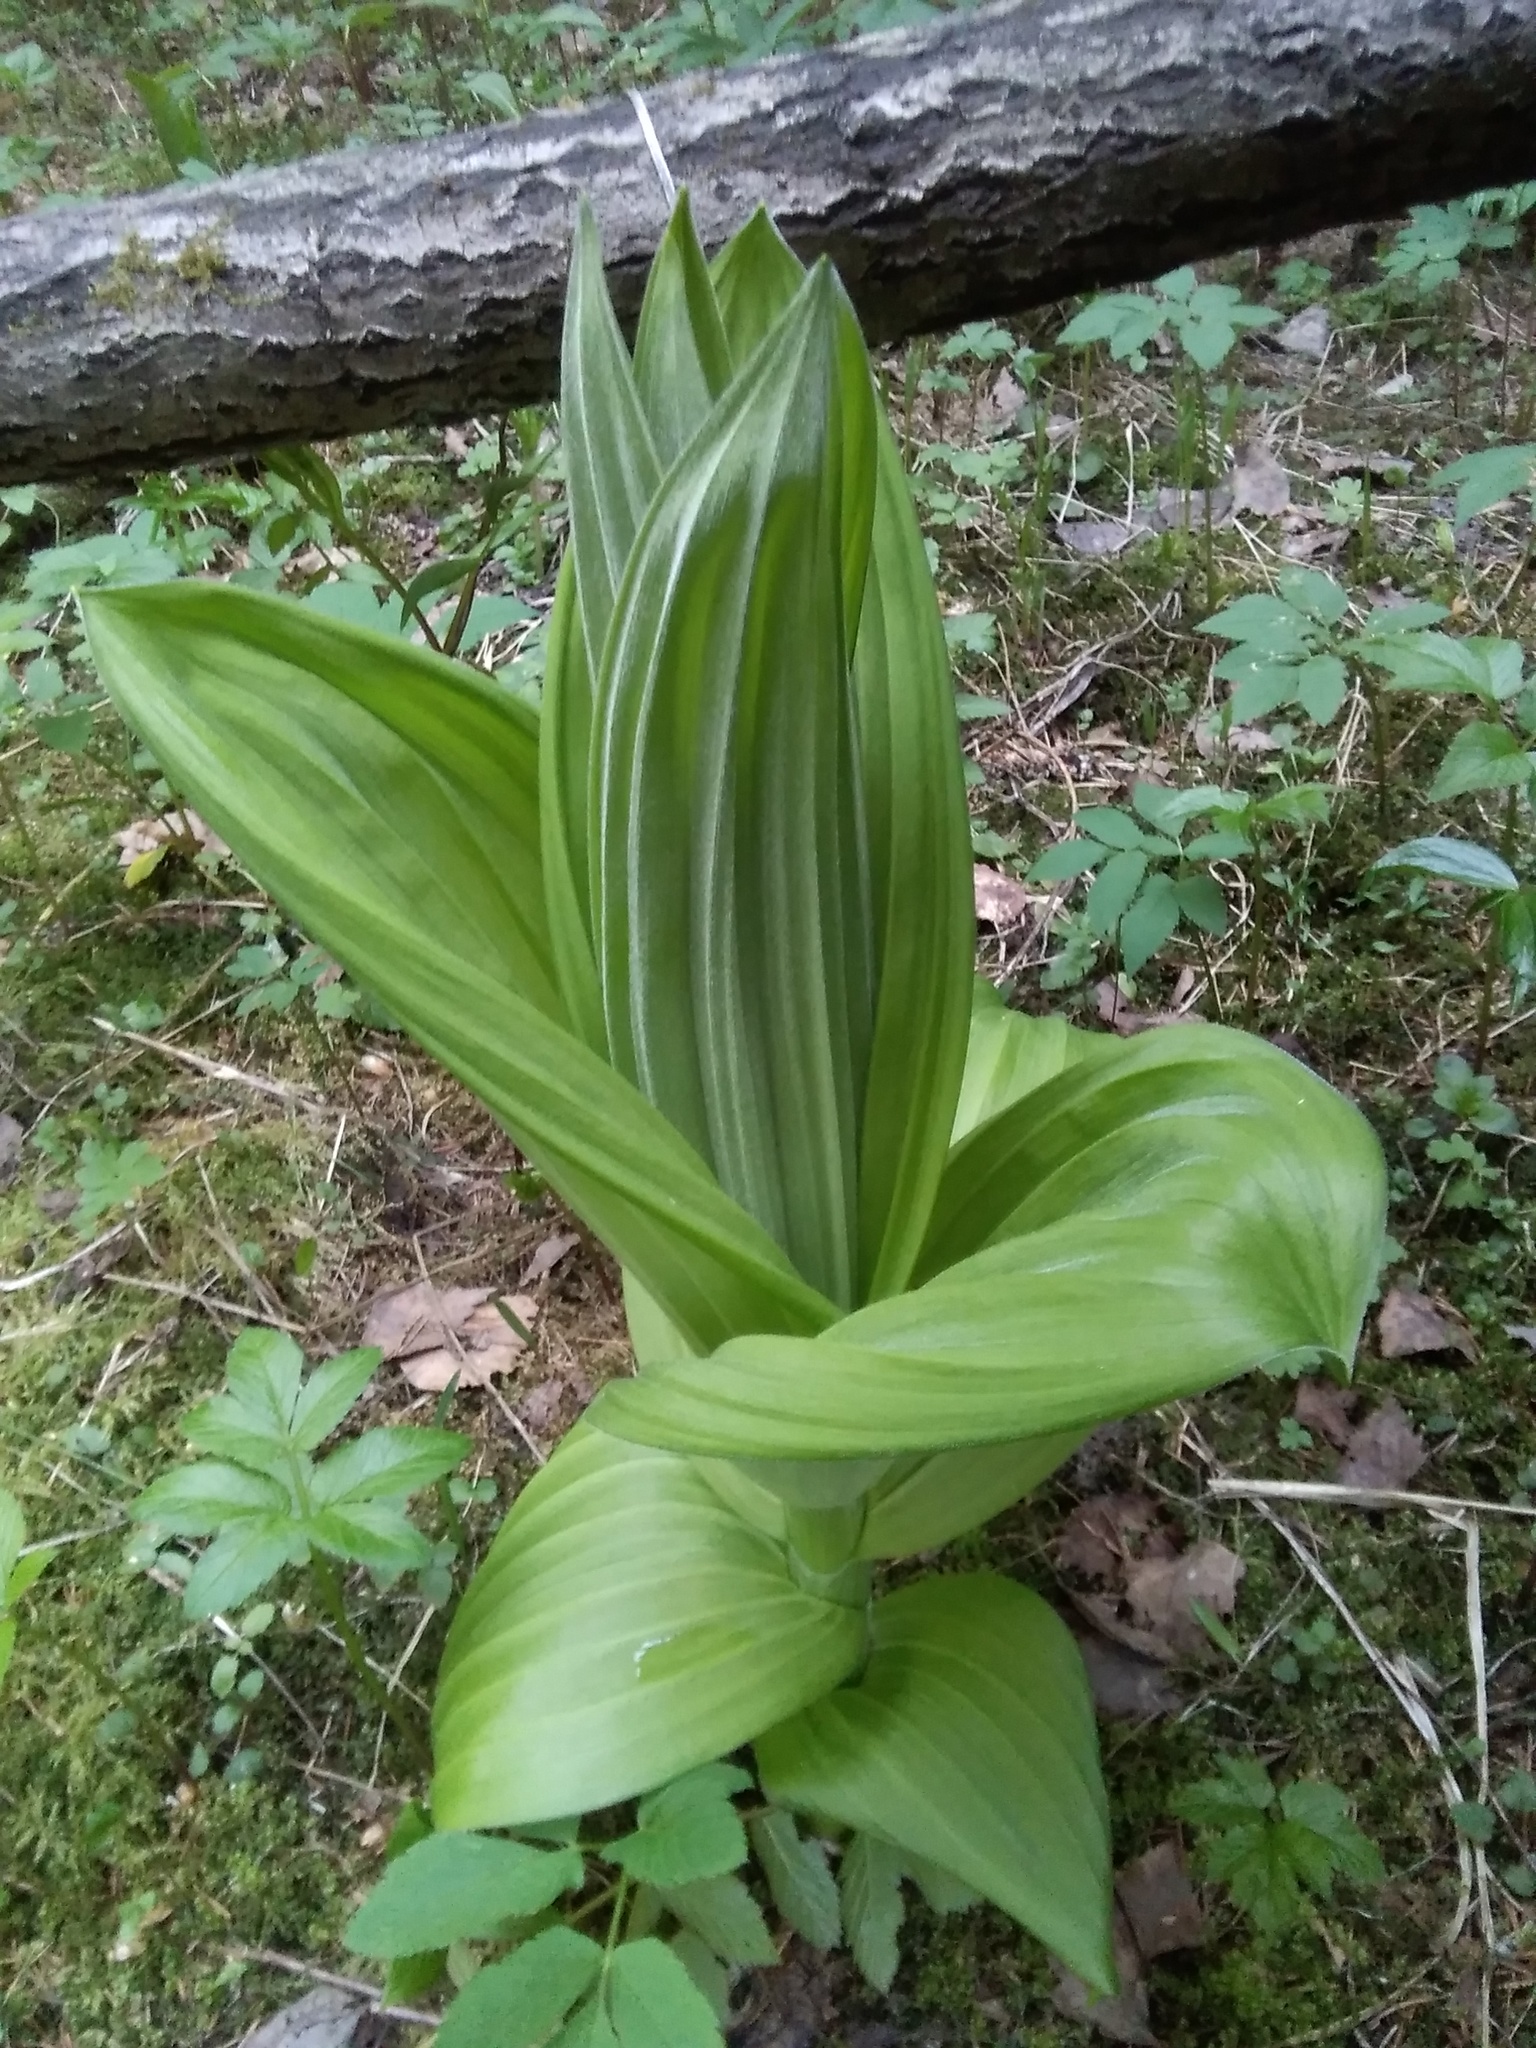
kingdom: Plantae
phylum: Tracheophyta
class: Liliopsida
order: Liliales
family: Melanthiaceae
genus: Veratrum
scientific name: Veratrum lobelianum
